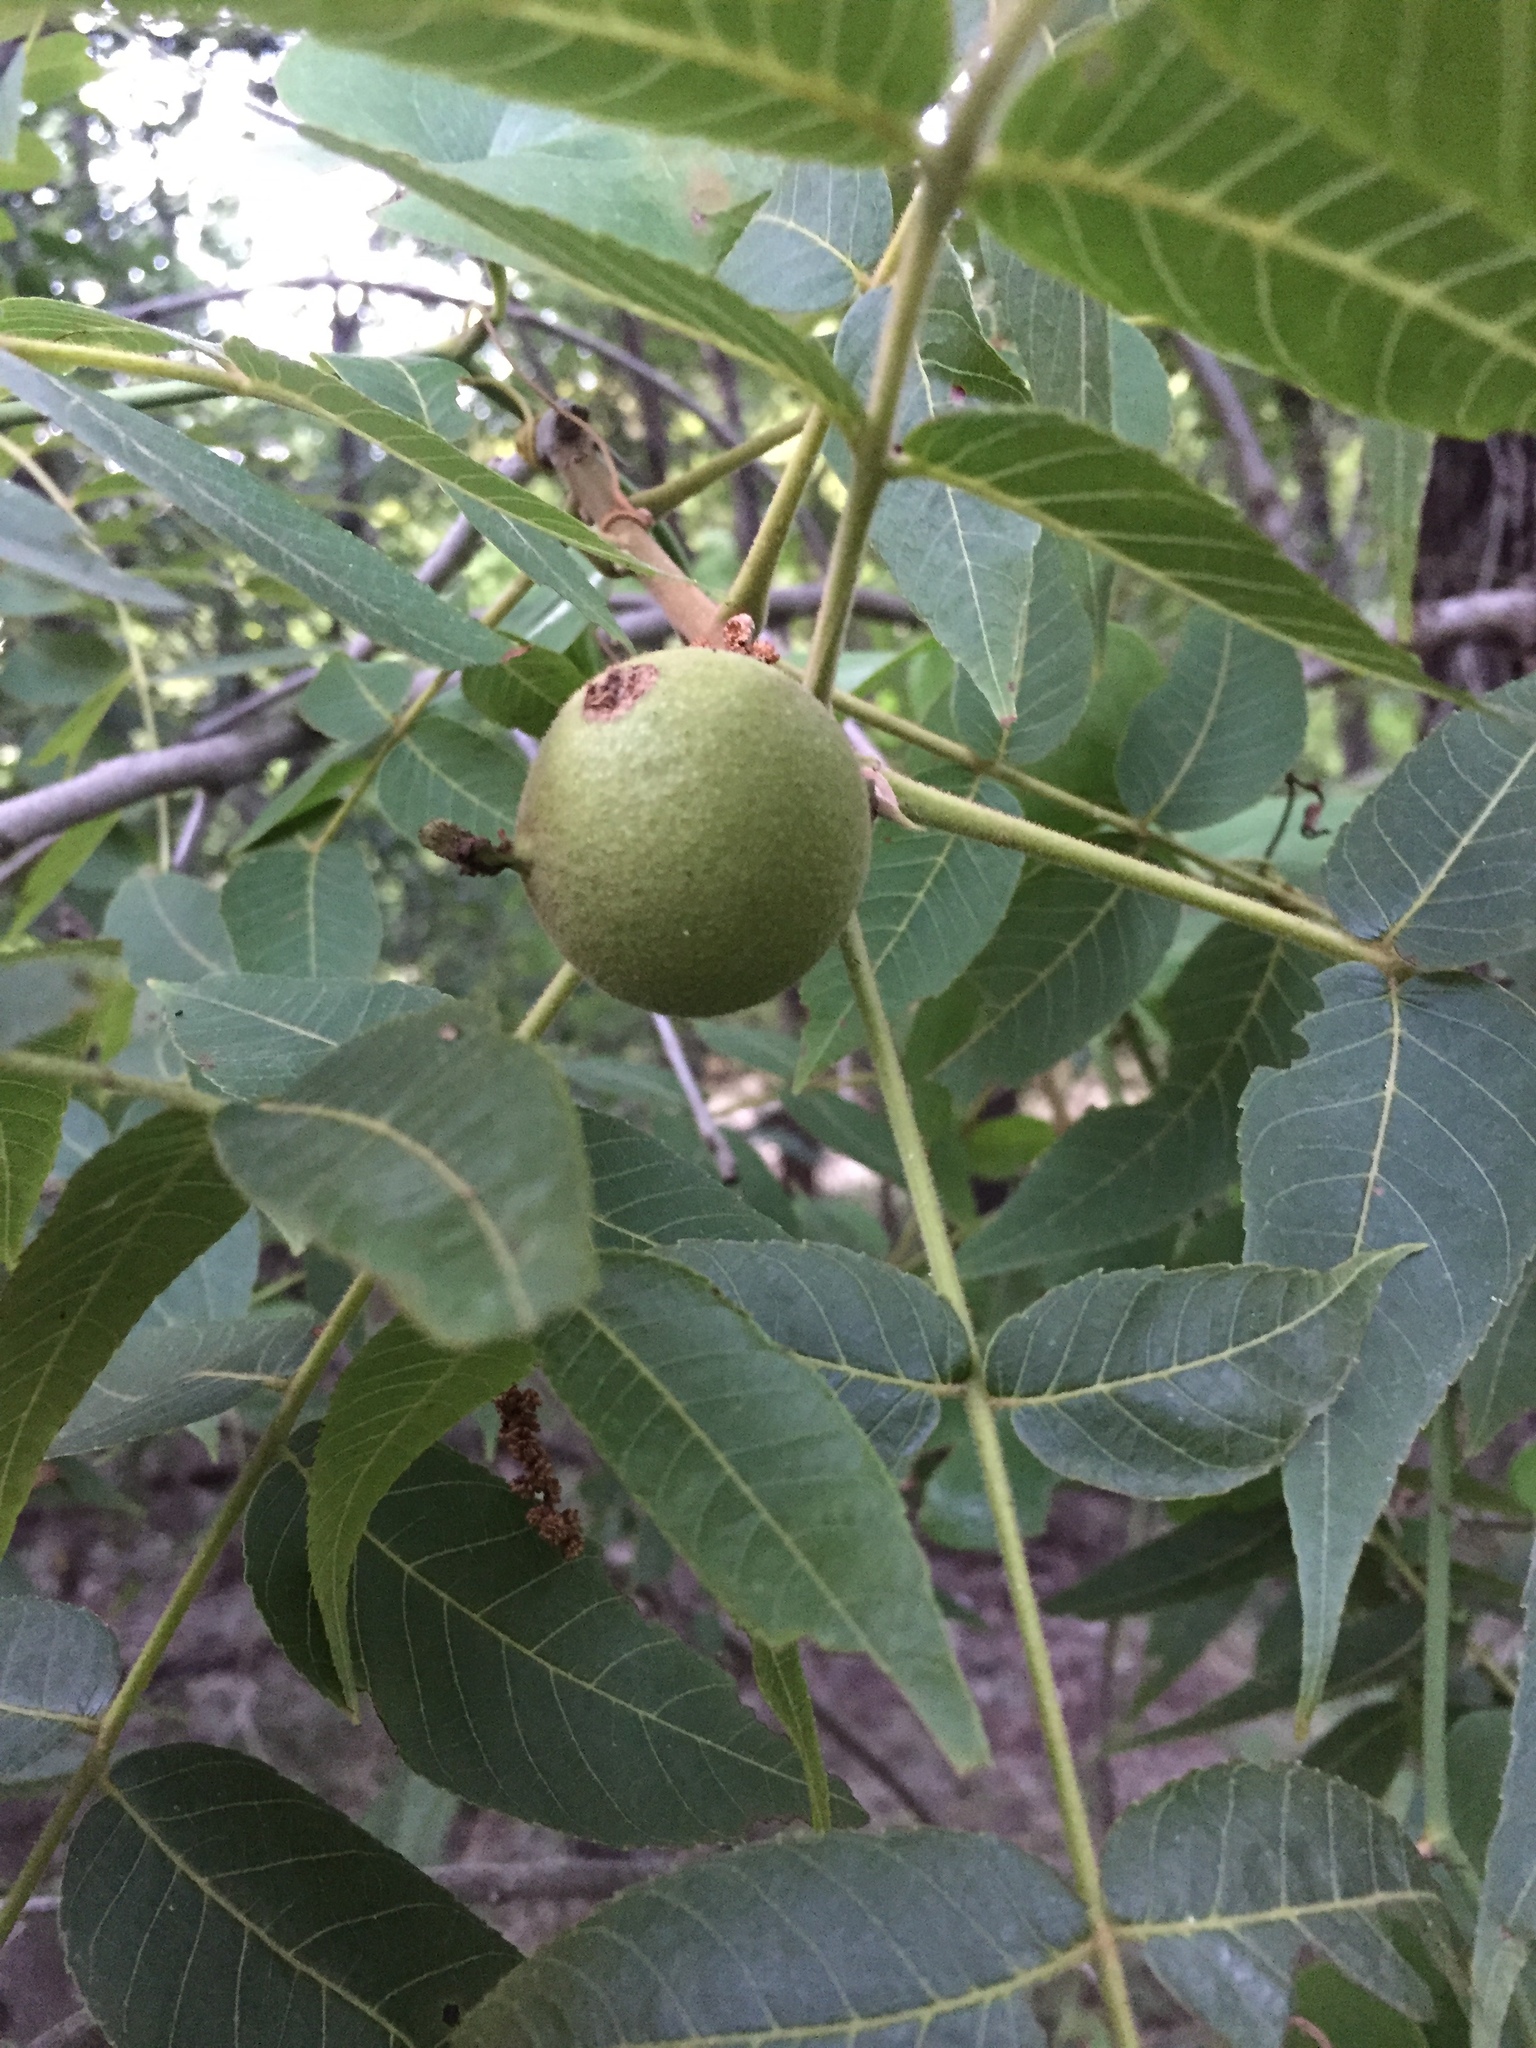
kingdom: Plantae
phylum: Tracheophyta
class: Magnoliopsida
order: Fagales
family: Juglandaceae
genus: Juglans
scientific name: Juglans nigra
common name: Black walnut
